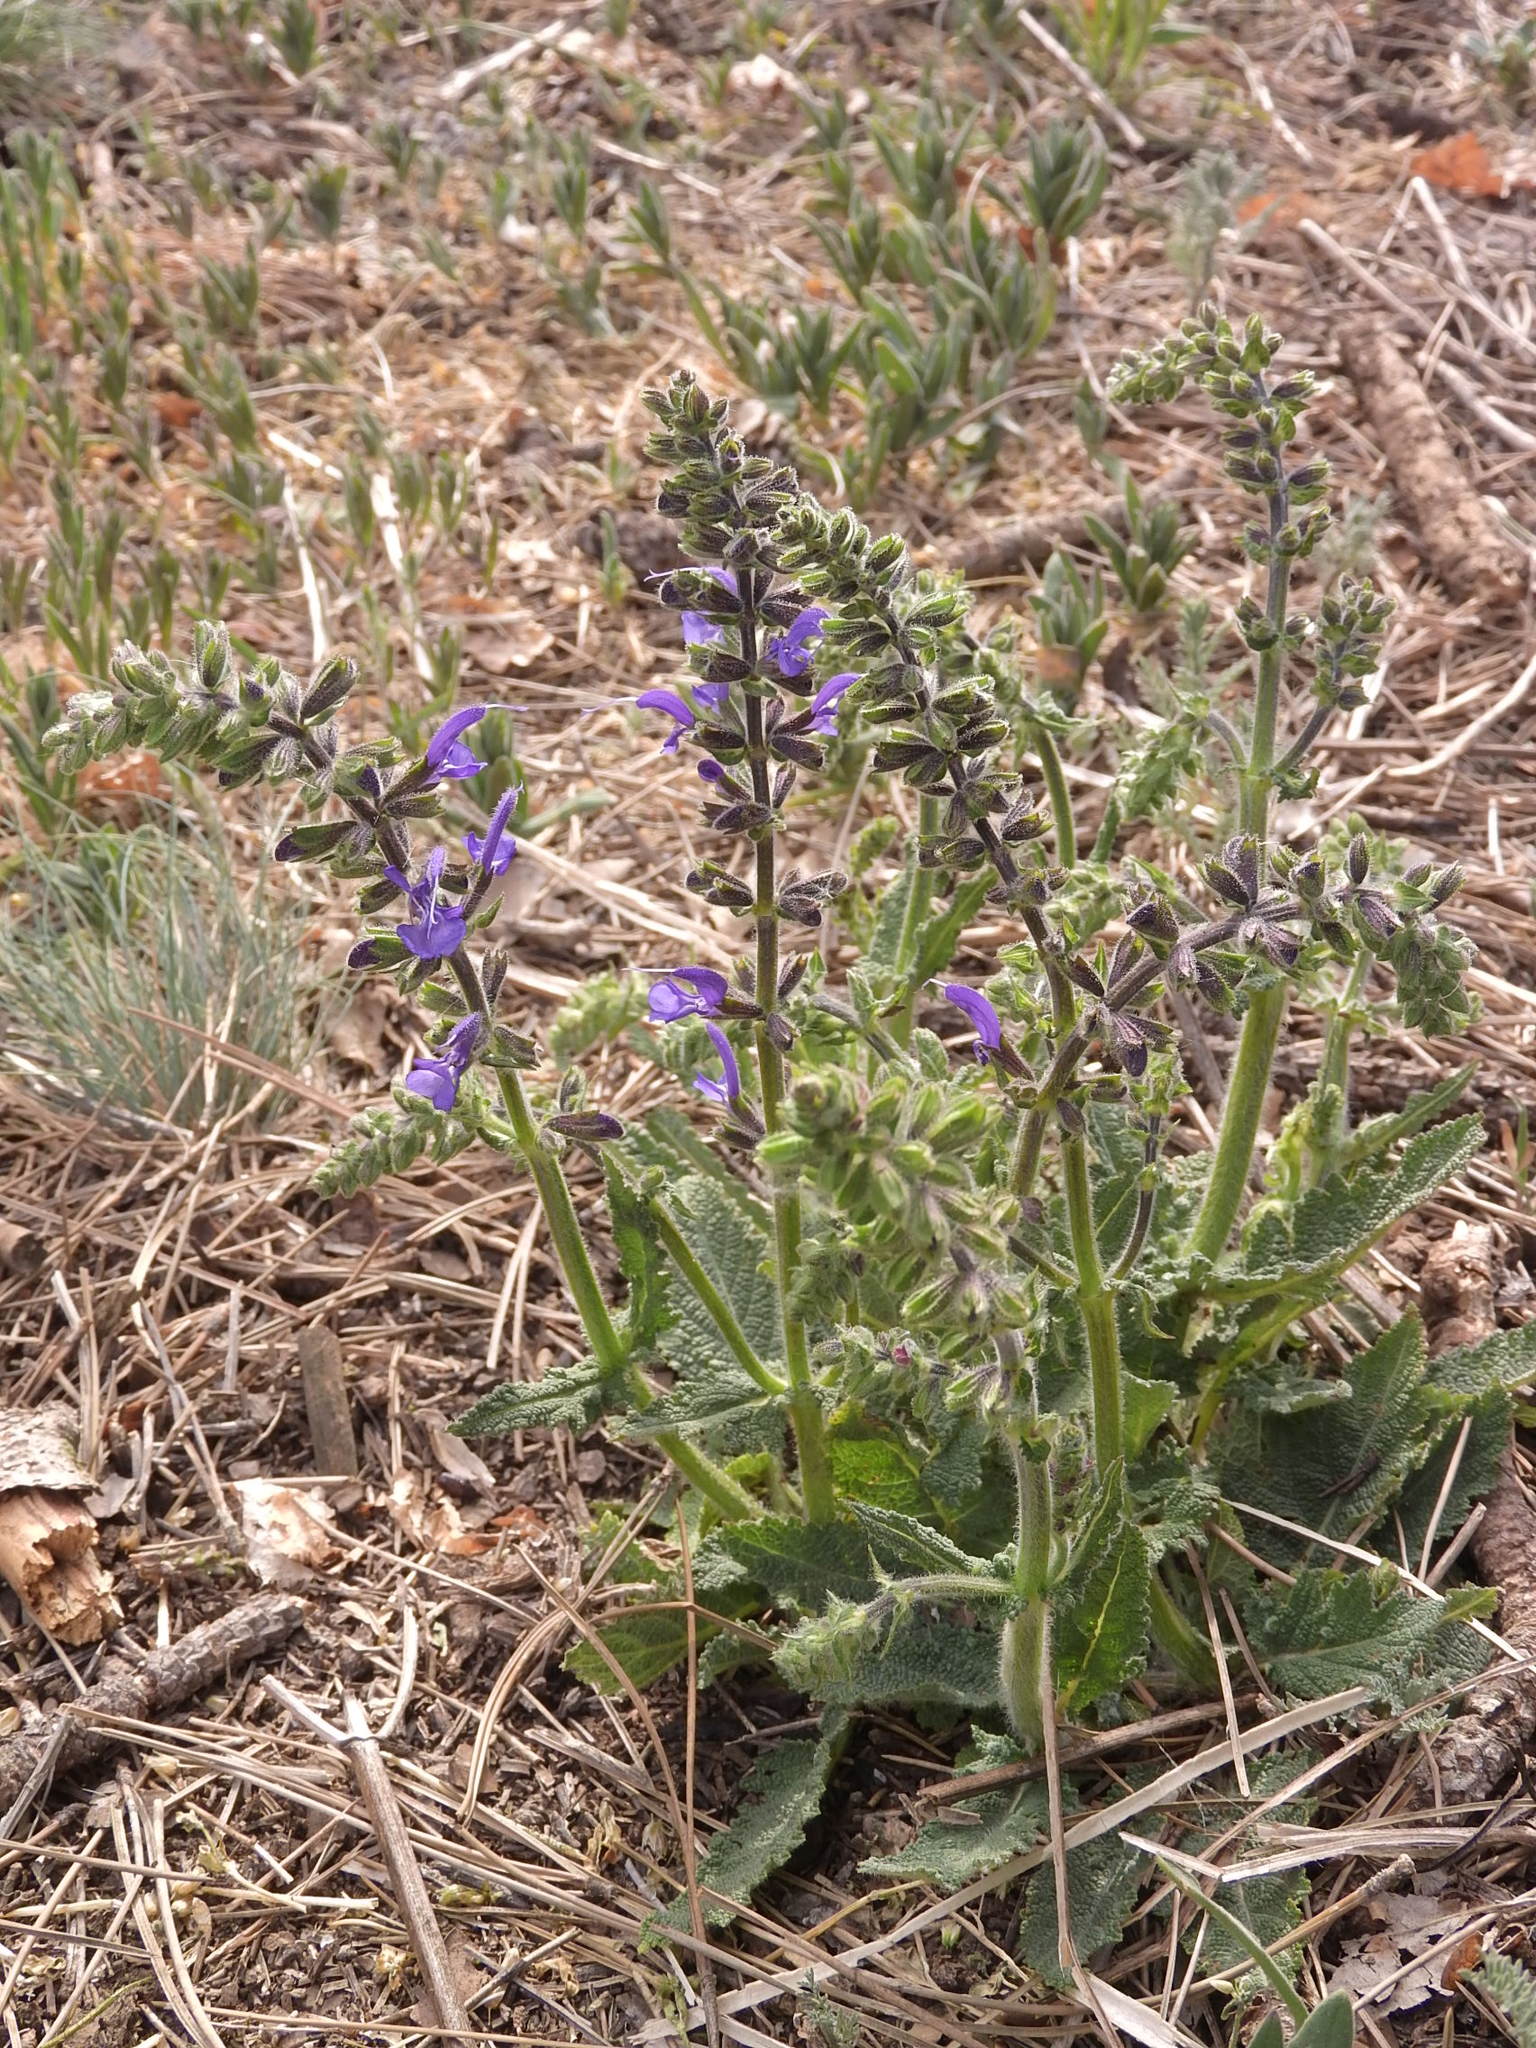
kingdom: Plantae
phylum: Tracheophyta
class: Magnoliopsida
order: Lamiales
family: Lamiaceae
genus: Salvia
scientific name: Salvia pratensis
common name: Meadow sage
